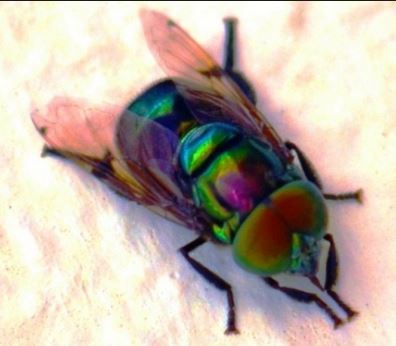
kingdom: Animalia
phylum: Arthropoda
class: Insecta
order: Diptera
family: Syrphidae
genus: Ornidia
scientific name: Ornidia obesa
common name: Syrphid fly
